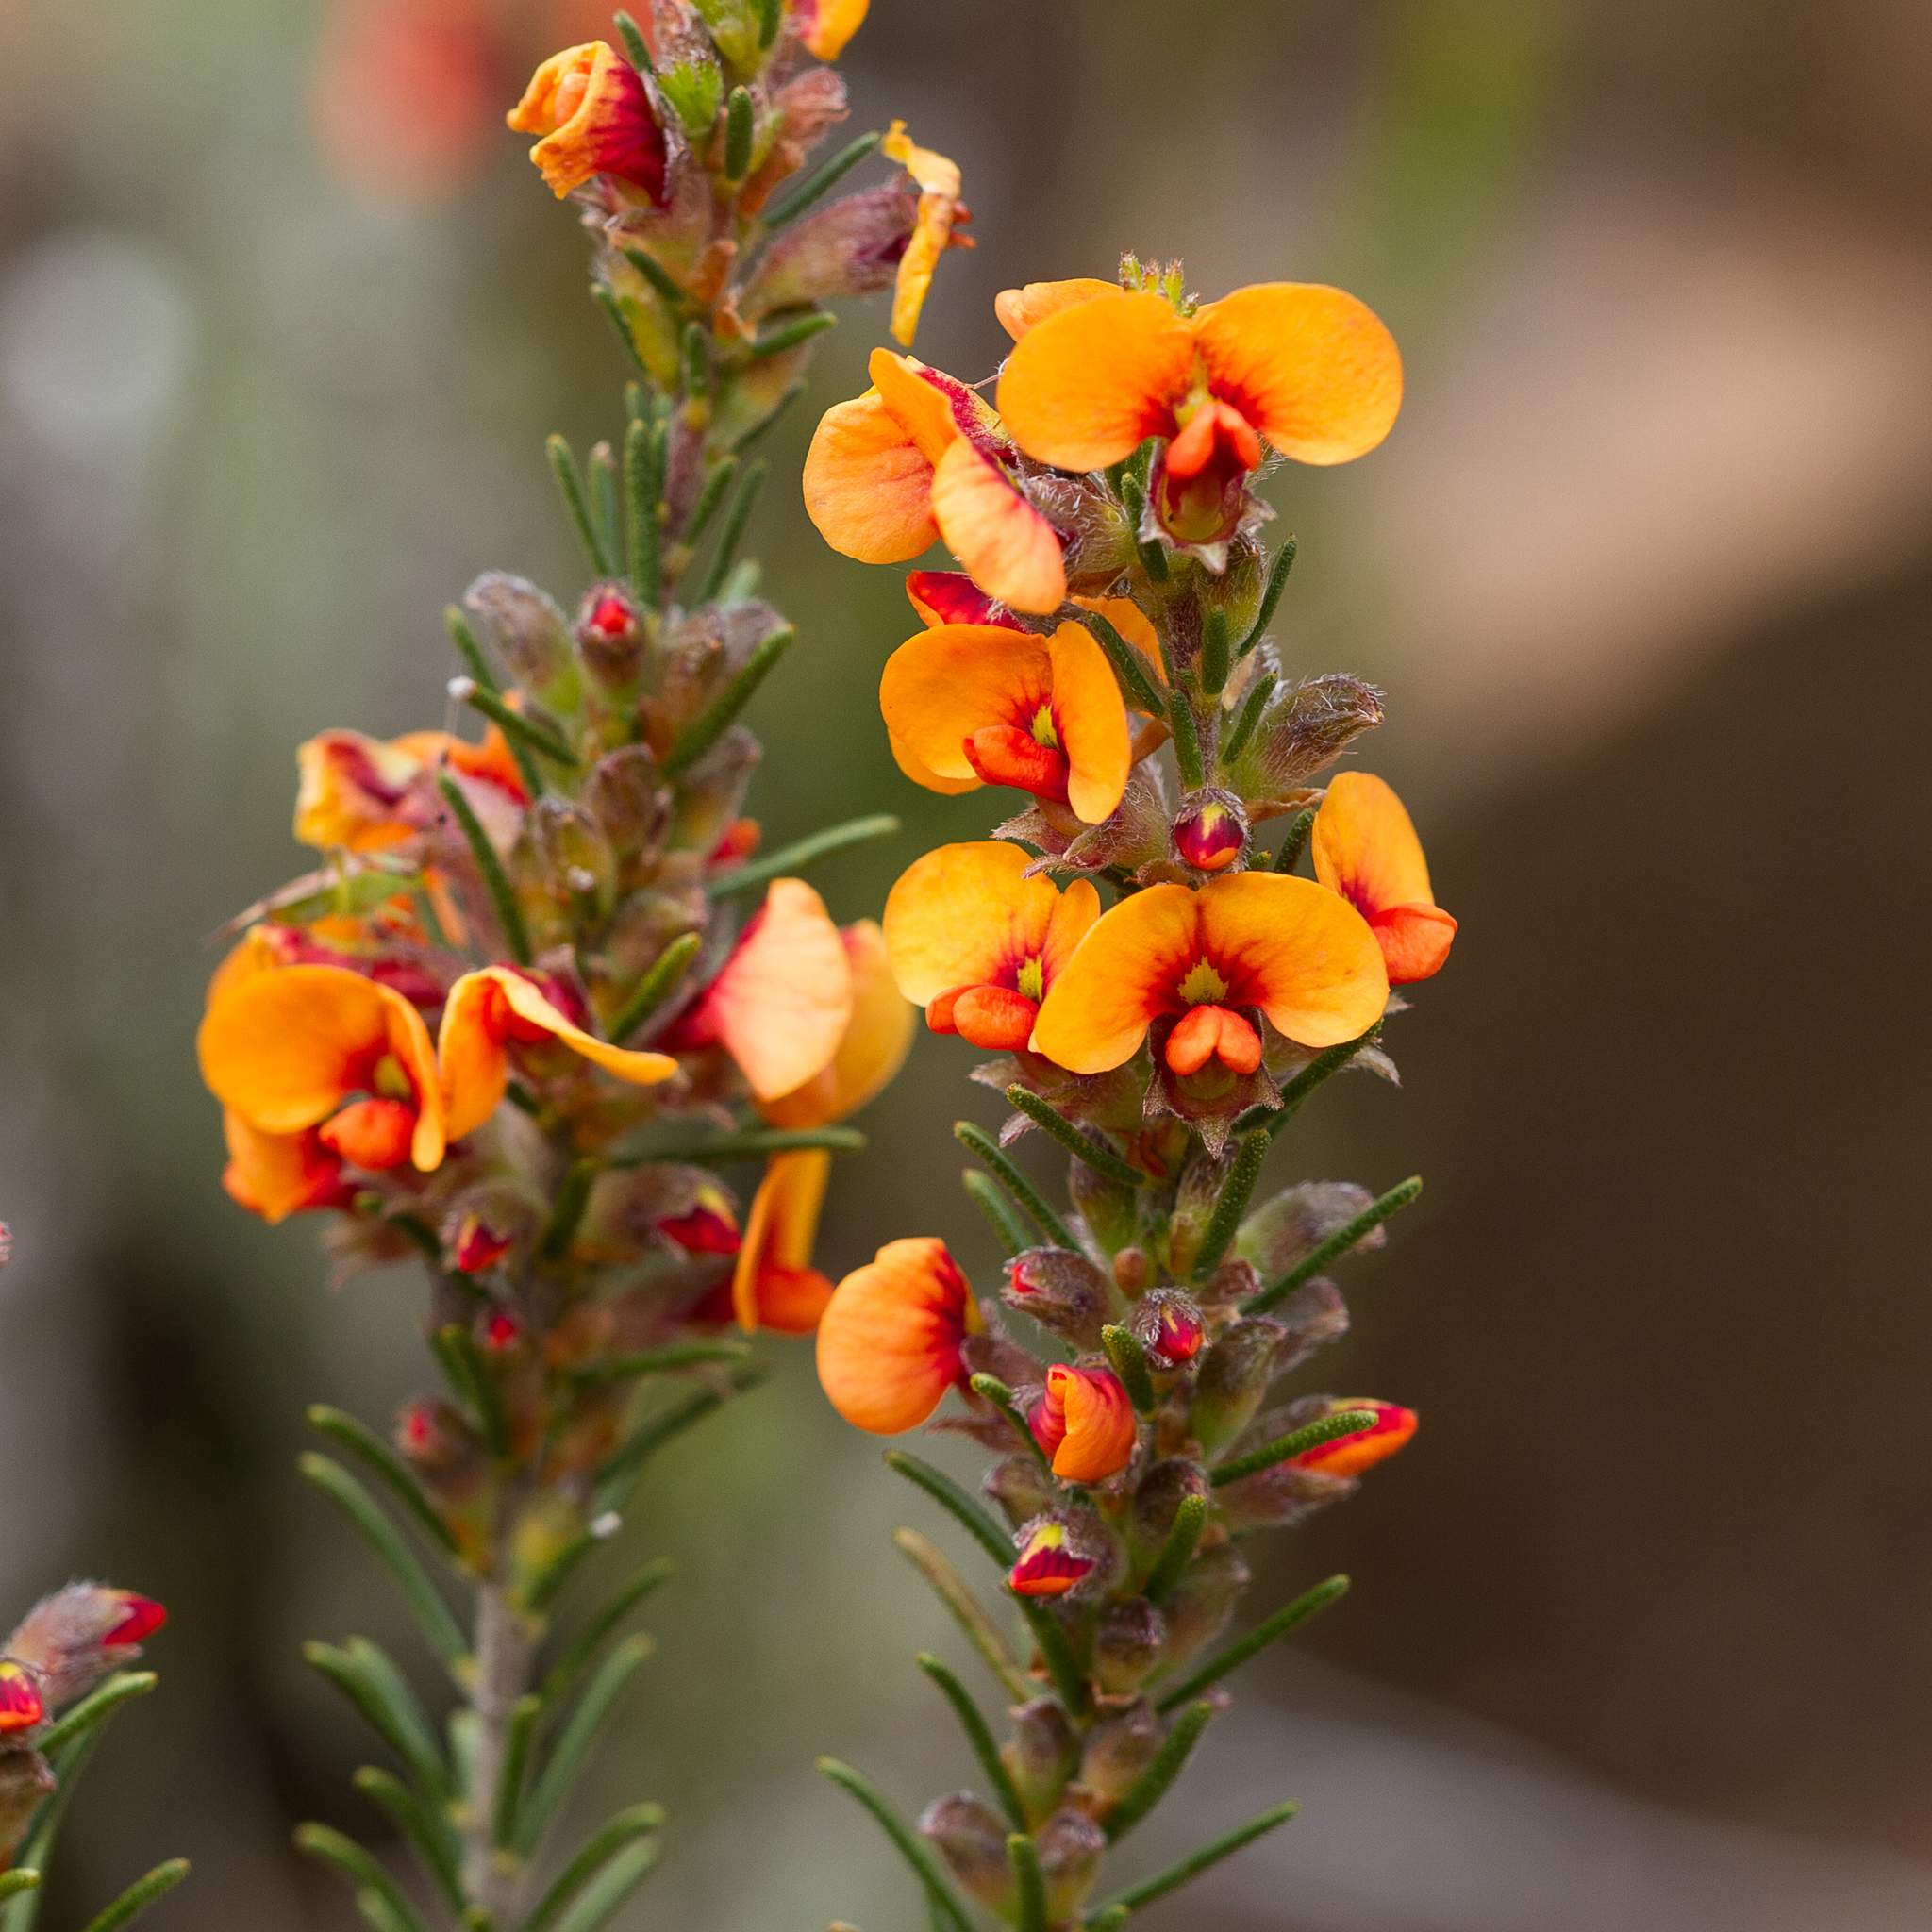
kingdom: Plantae
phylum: Tracheophyta
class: Magnoliopsida
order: Fabales
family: Fabaceae
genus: Dillwynia
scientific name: Dillwynia sericea
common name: Showy parrot-pea
